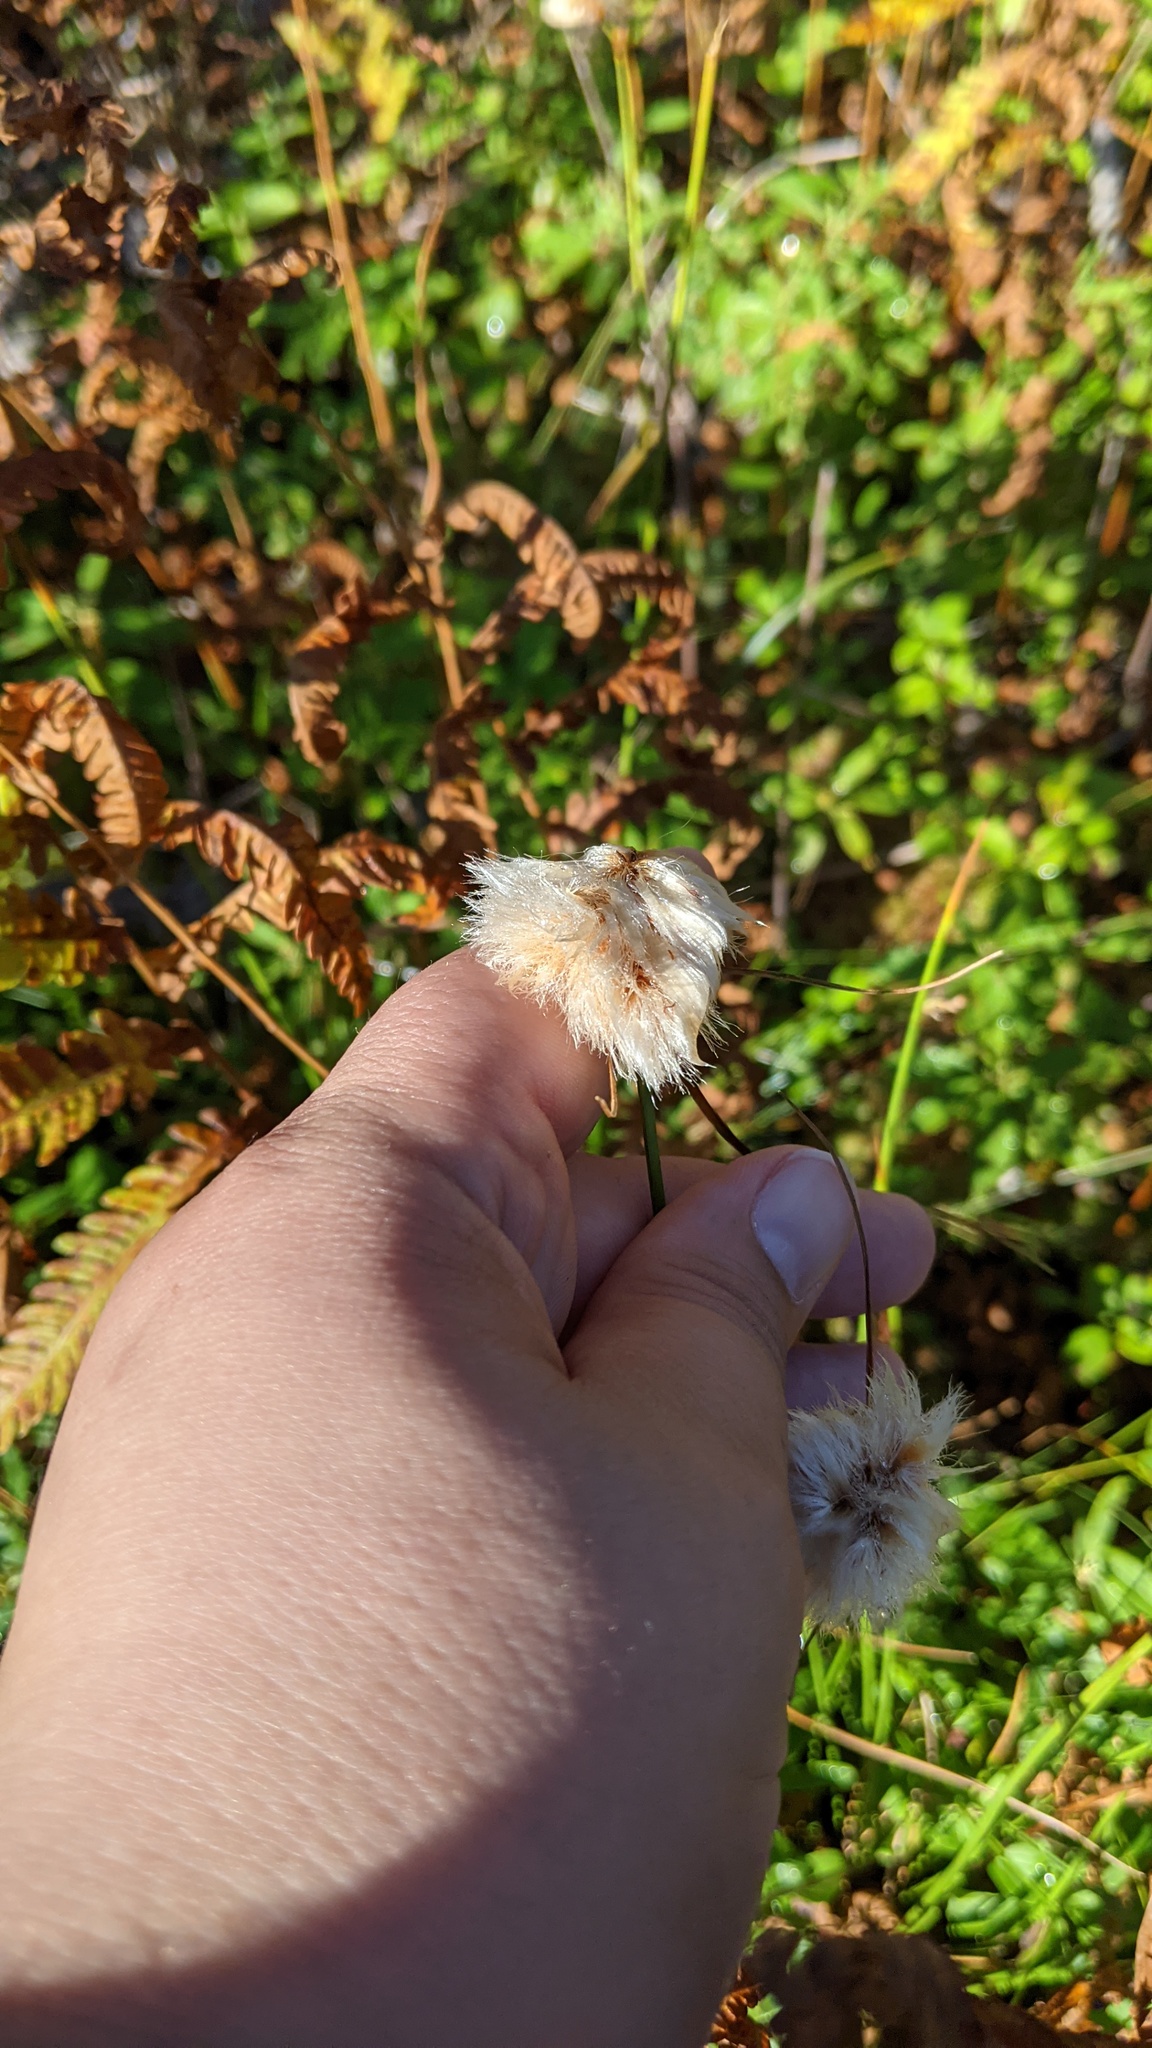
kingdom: Plantae
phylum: Tracheophyta
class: Liliopsida
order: Poales
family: Cyperaceae
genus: Eriophorum
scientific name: Eriophorum virginicum
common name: Tawny cottongrass
